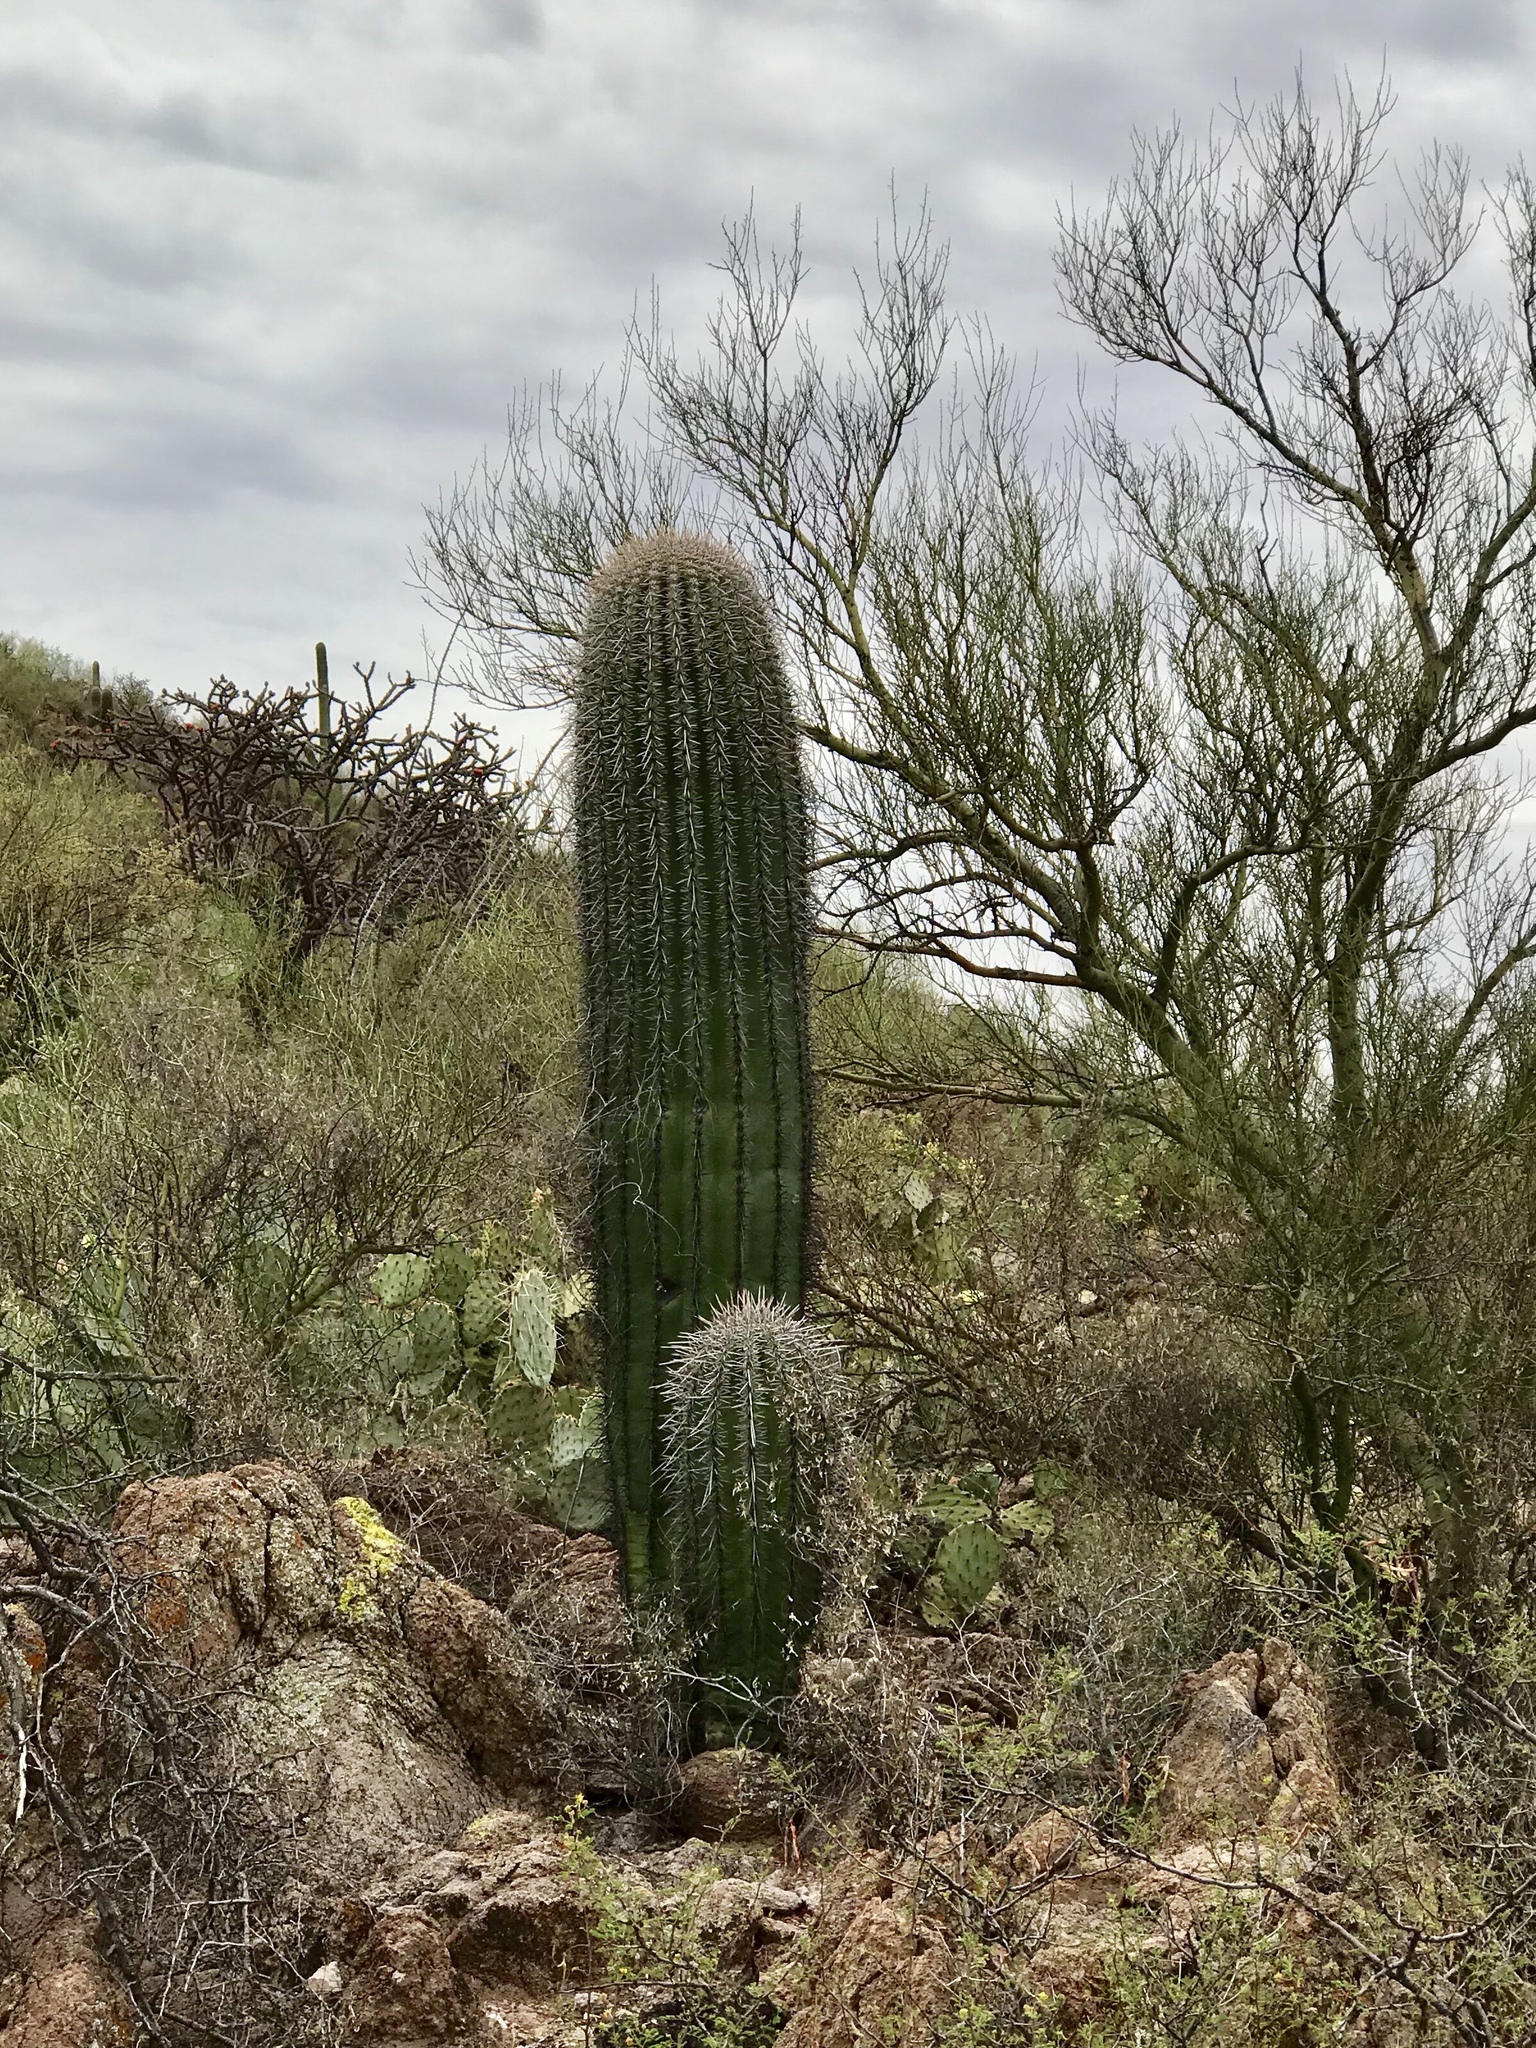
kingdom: Plantae
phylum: Tracheophyta
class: Magnoliopsida
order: Caryophyllales
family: Cactaceae
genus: Carnegiea
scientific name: Carnegiea gigantea
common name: Saguaro
